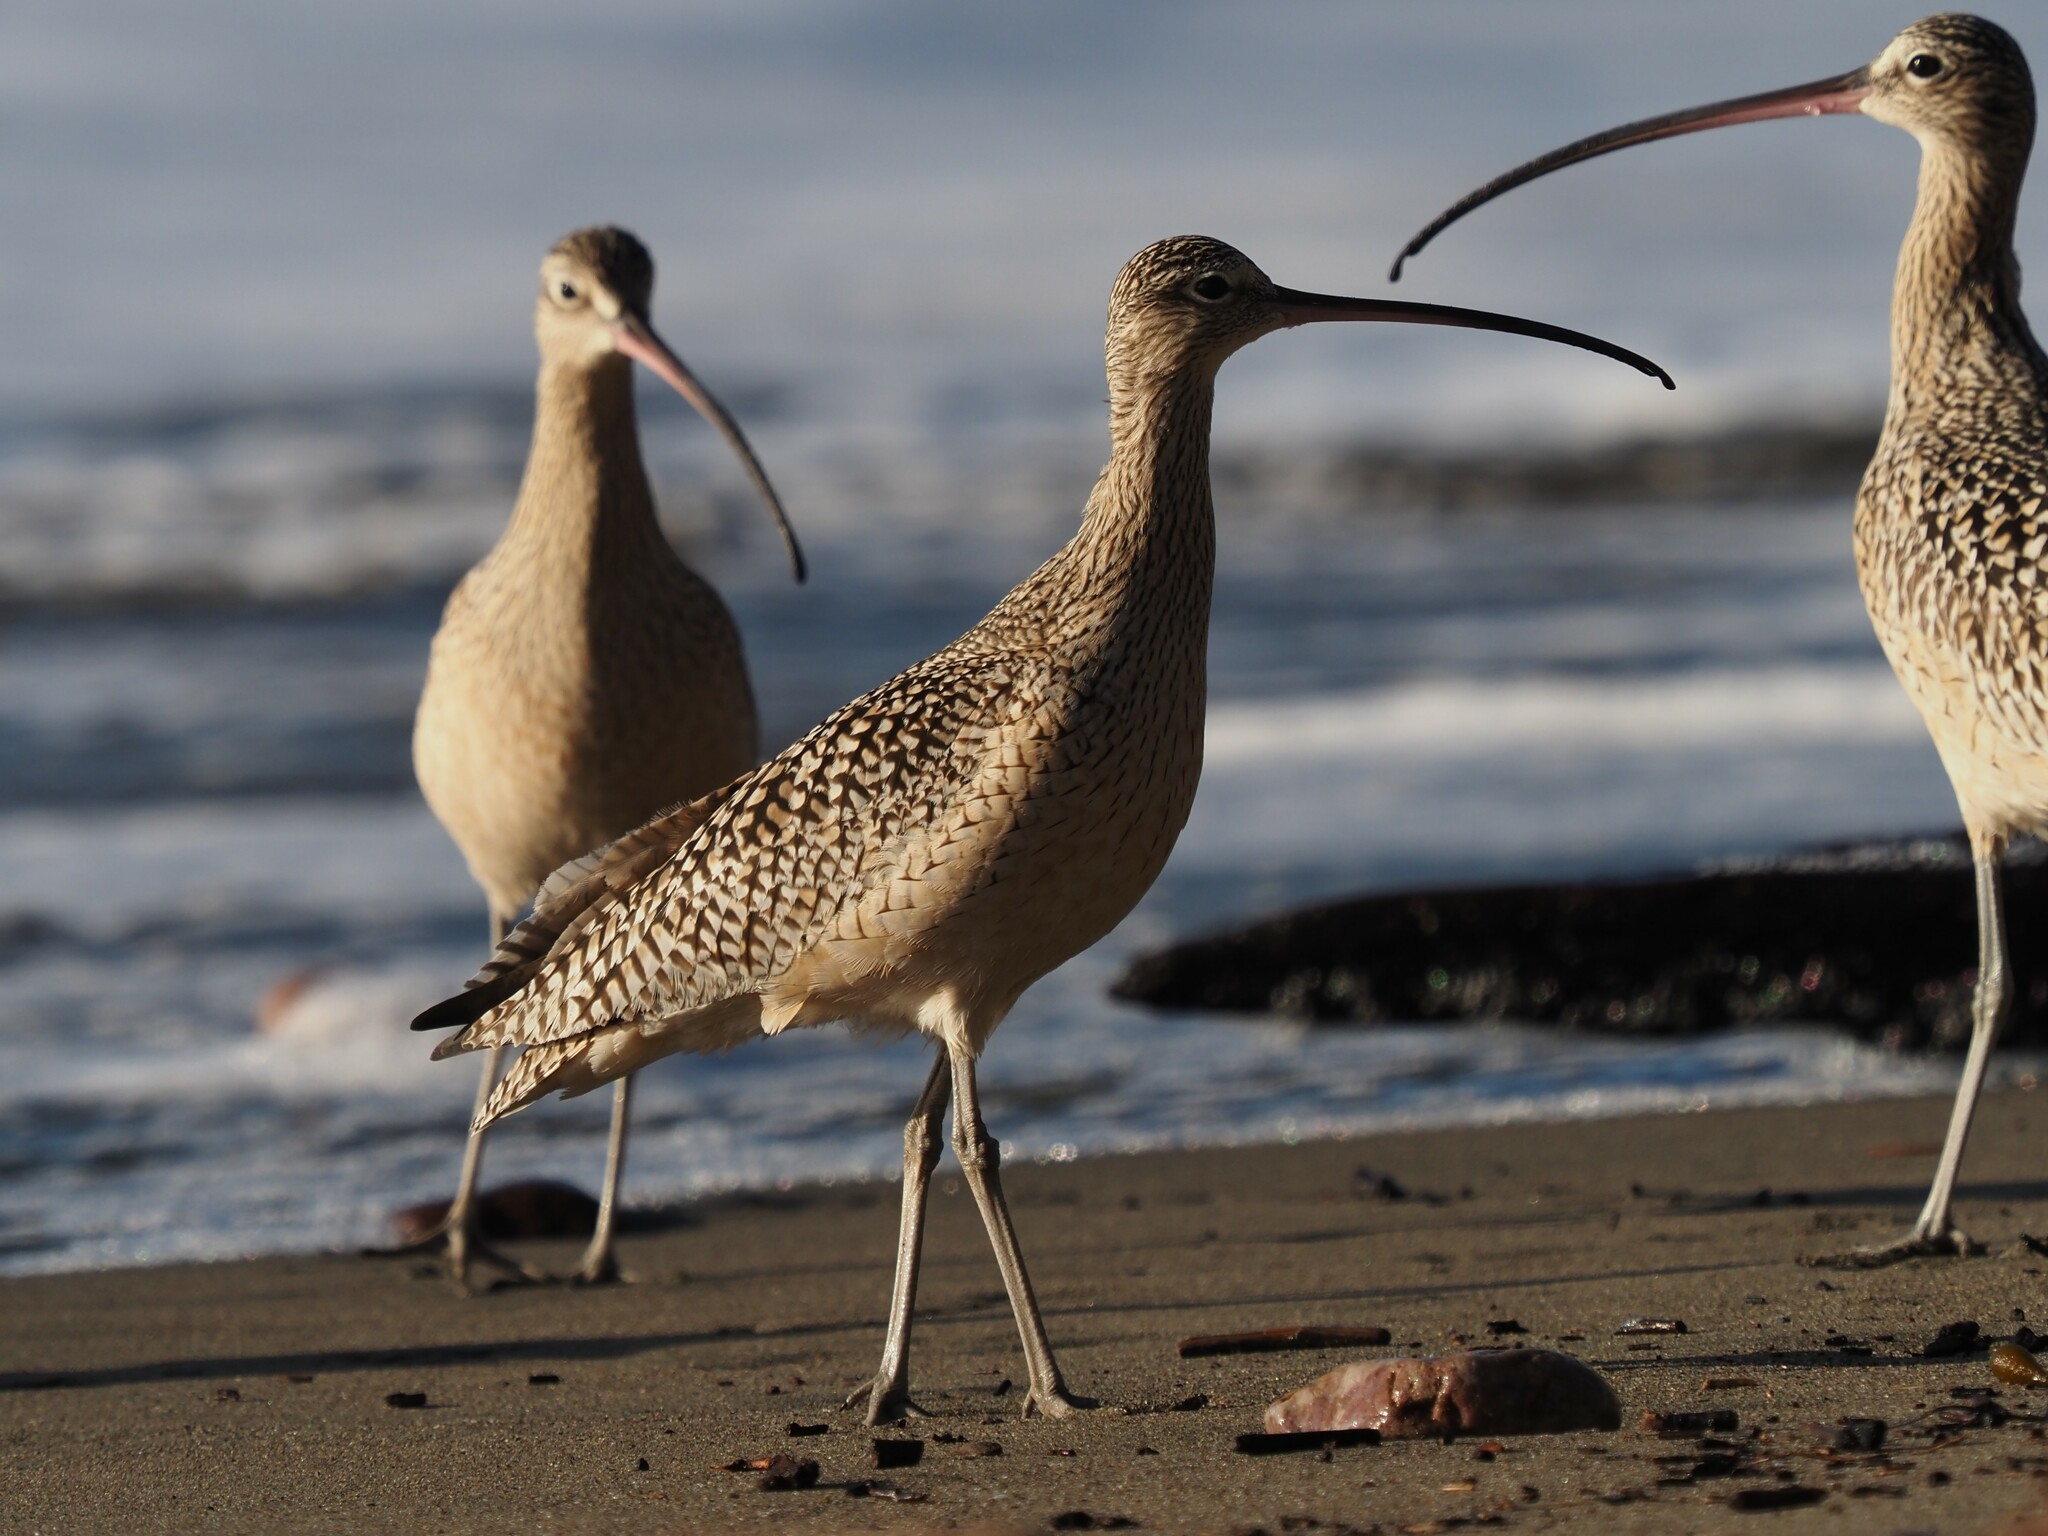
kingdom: Animalia
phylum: Chordata
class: Aves
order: Charadriiformes
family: Scolopacidae
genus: Numenius
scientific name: Numenius hudsonicus
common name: Hudsonian whimbrel
